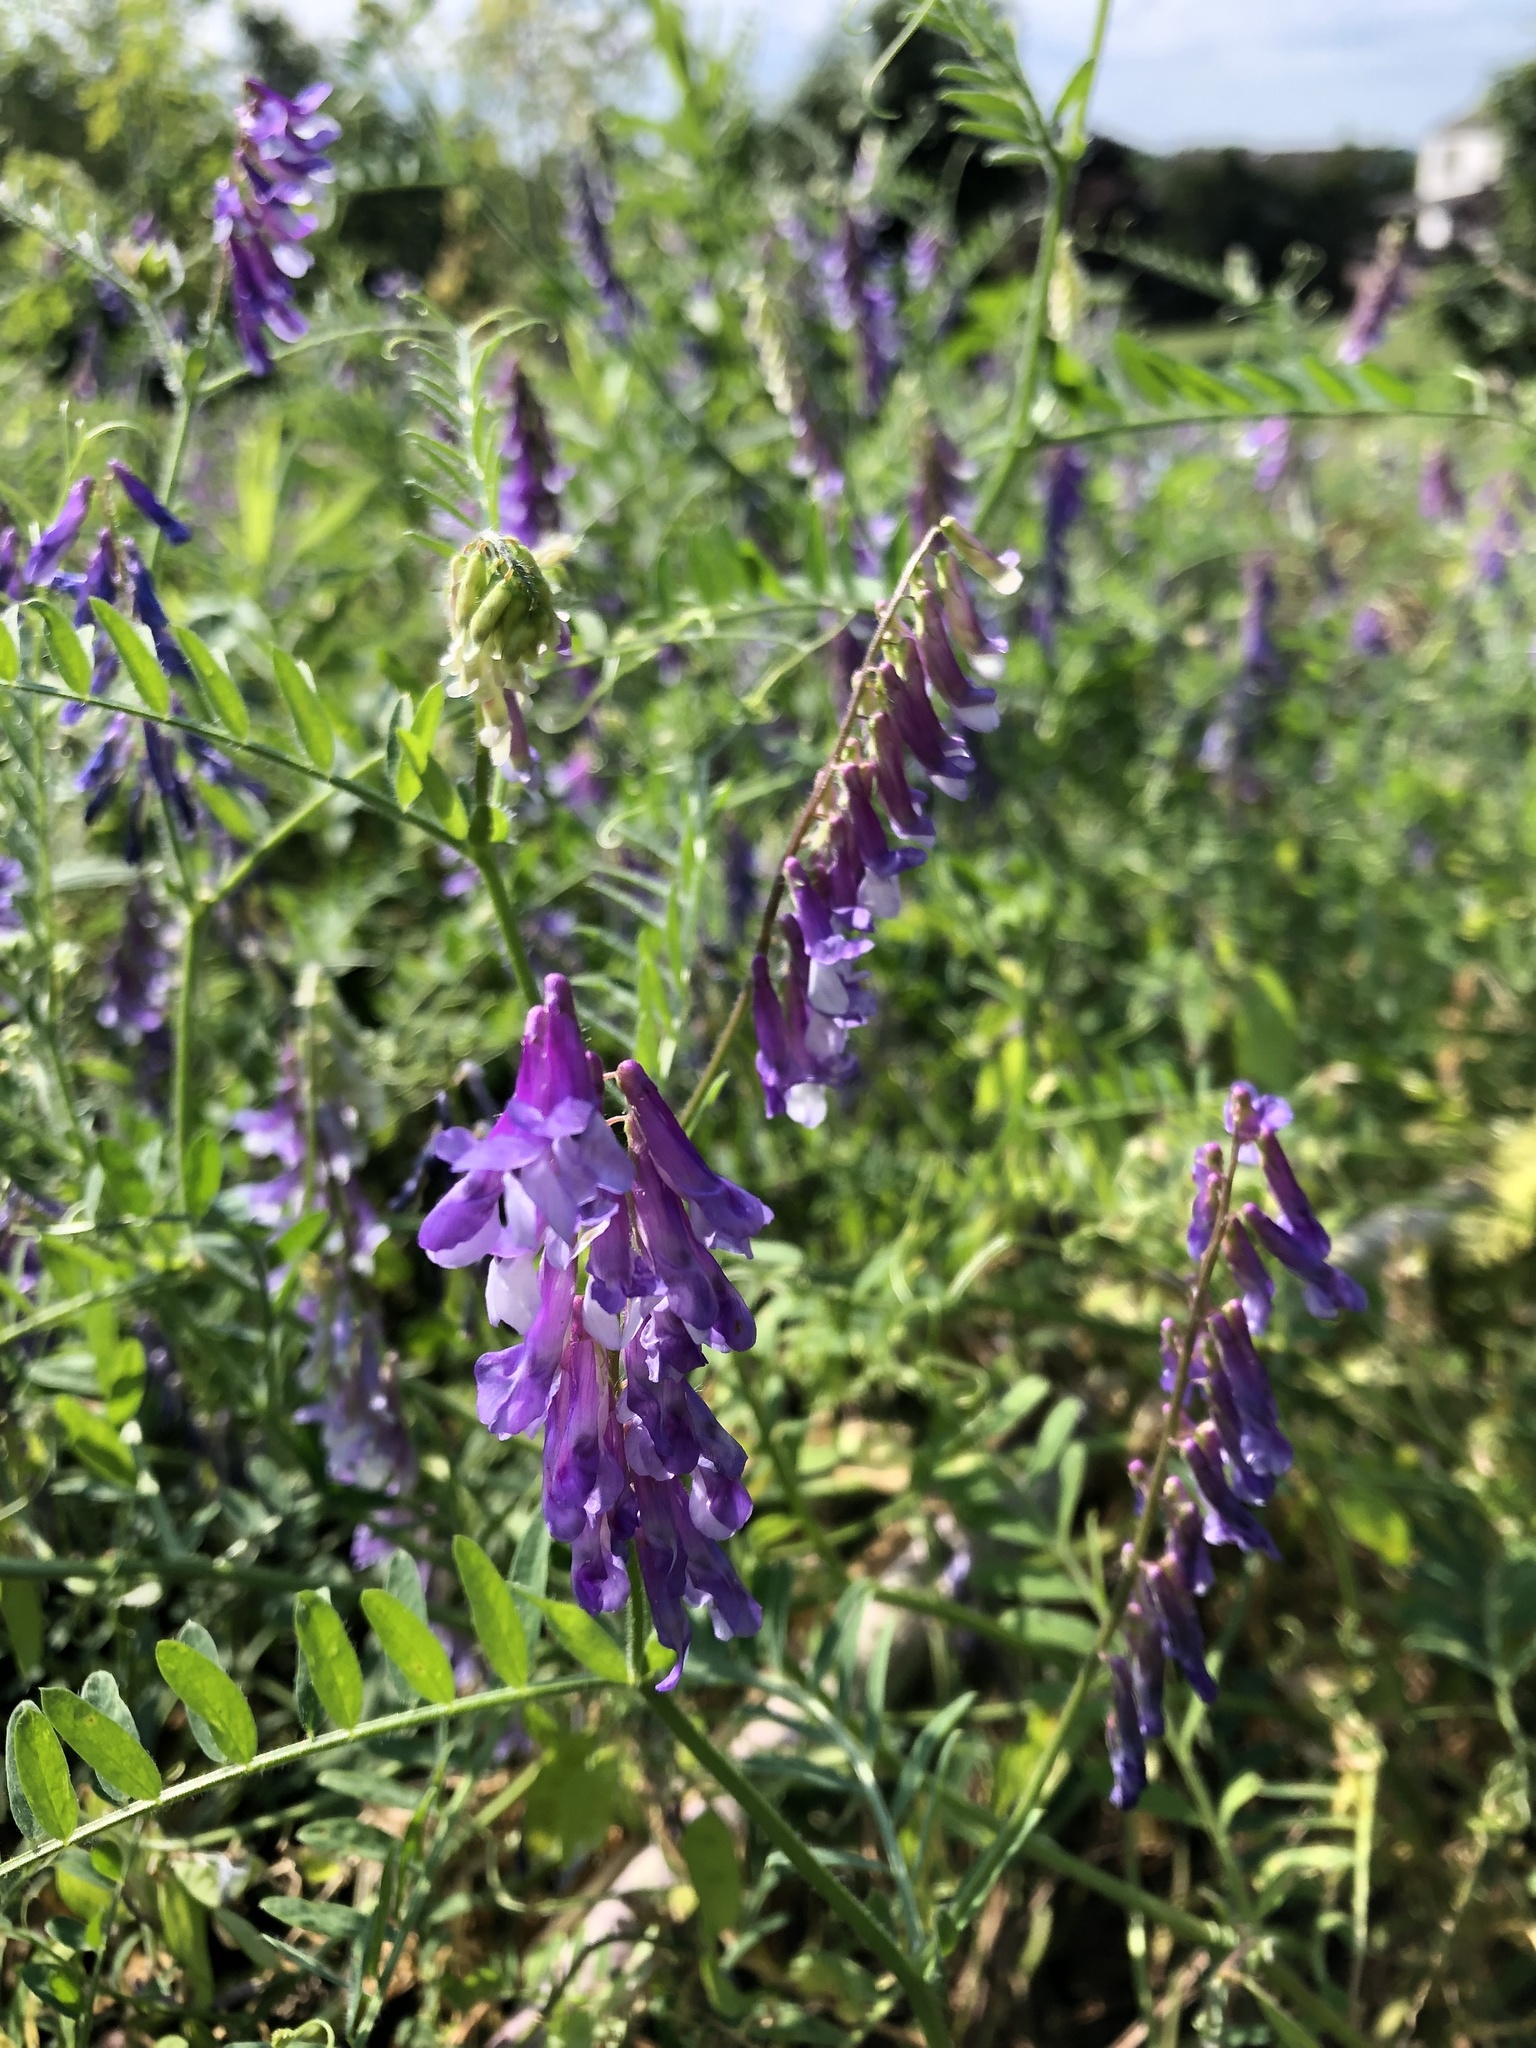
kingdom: Plantae
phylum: Tracheophyta
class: Magnoliopsida
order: Fabales
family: Fabaceae
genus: Vicia
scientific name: Vicia villosa
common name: Fodder vetch
